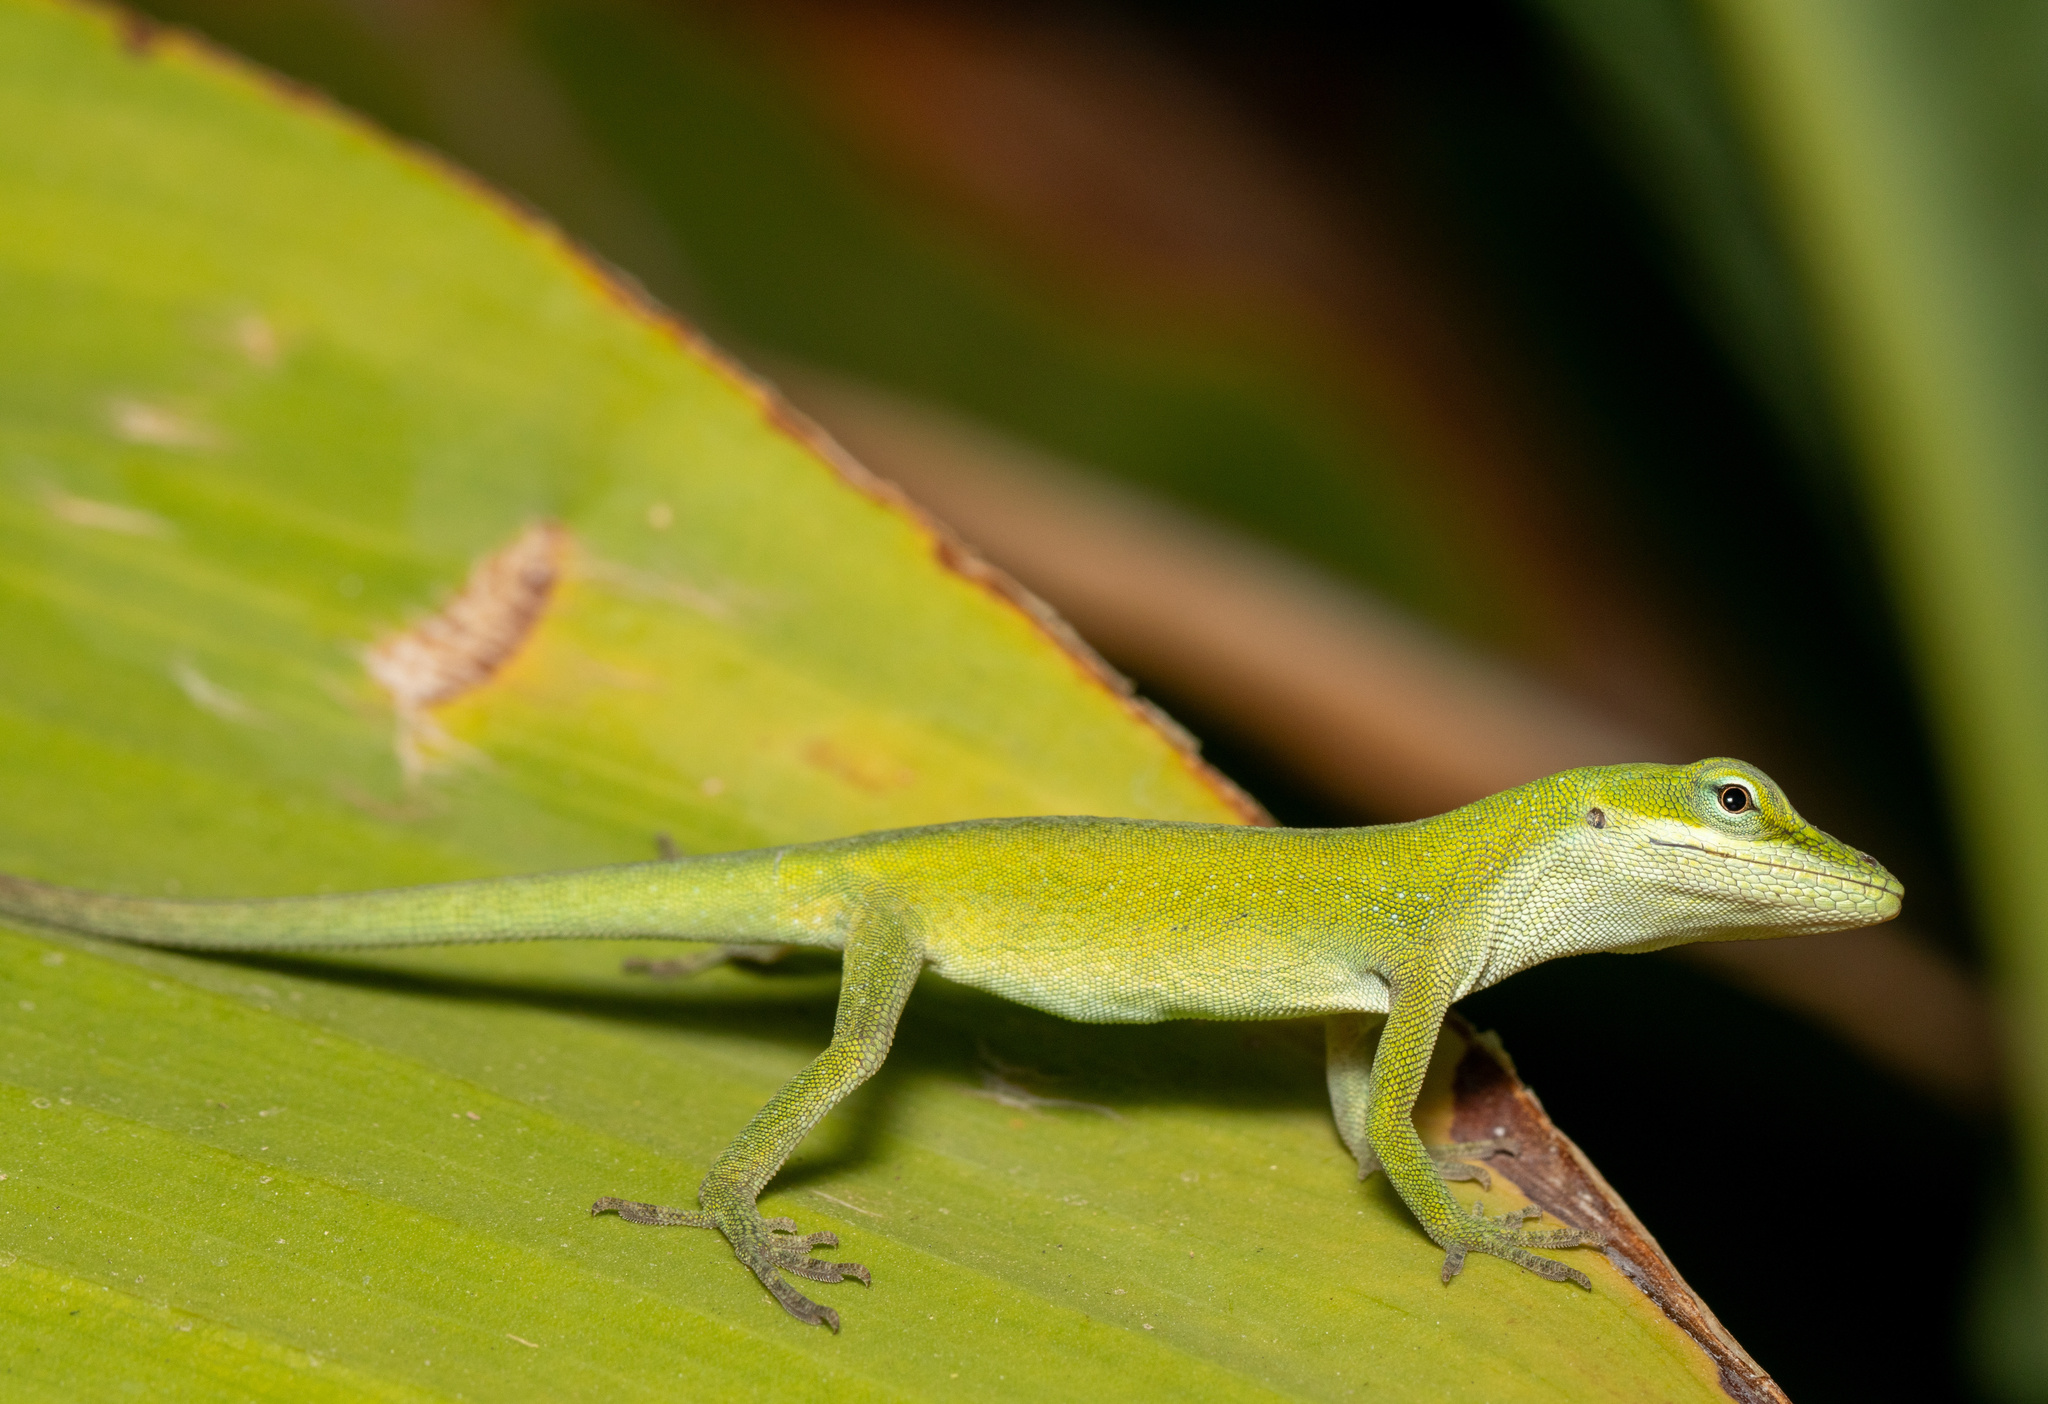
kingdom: Animalia
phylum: Chordata
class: Squamata
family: Dactyloidae
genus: Anolis
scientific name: Anolis carolinensis
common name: Green anole
